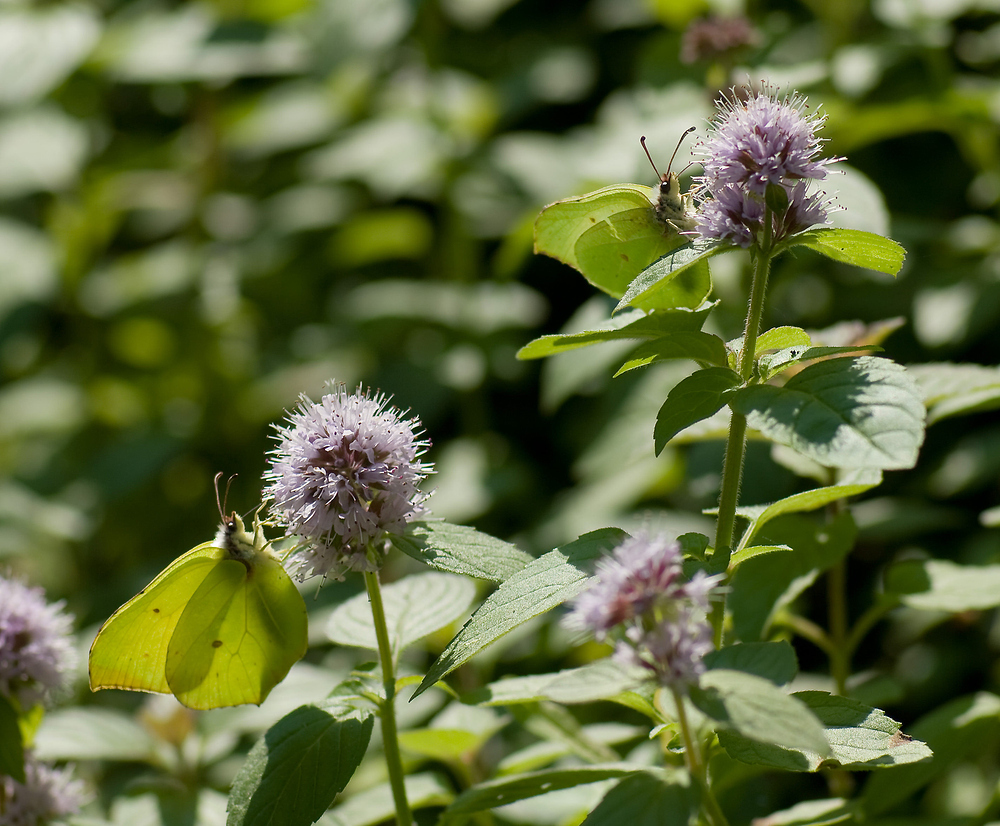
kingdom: Animalia
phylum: Arthropoda
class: Insecta
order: Lepidoptera
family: Pieridae
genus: Gonepteryx
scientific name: Gonepteryx rhamni
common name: Brimstone
